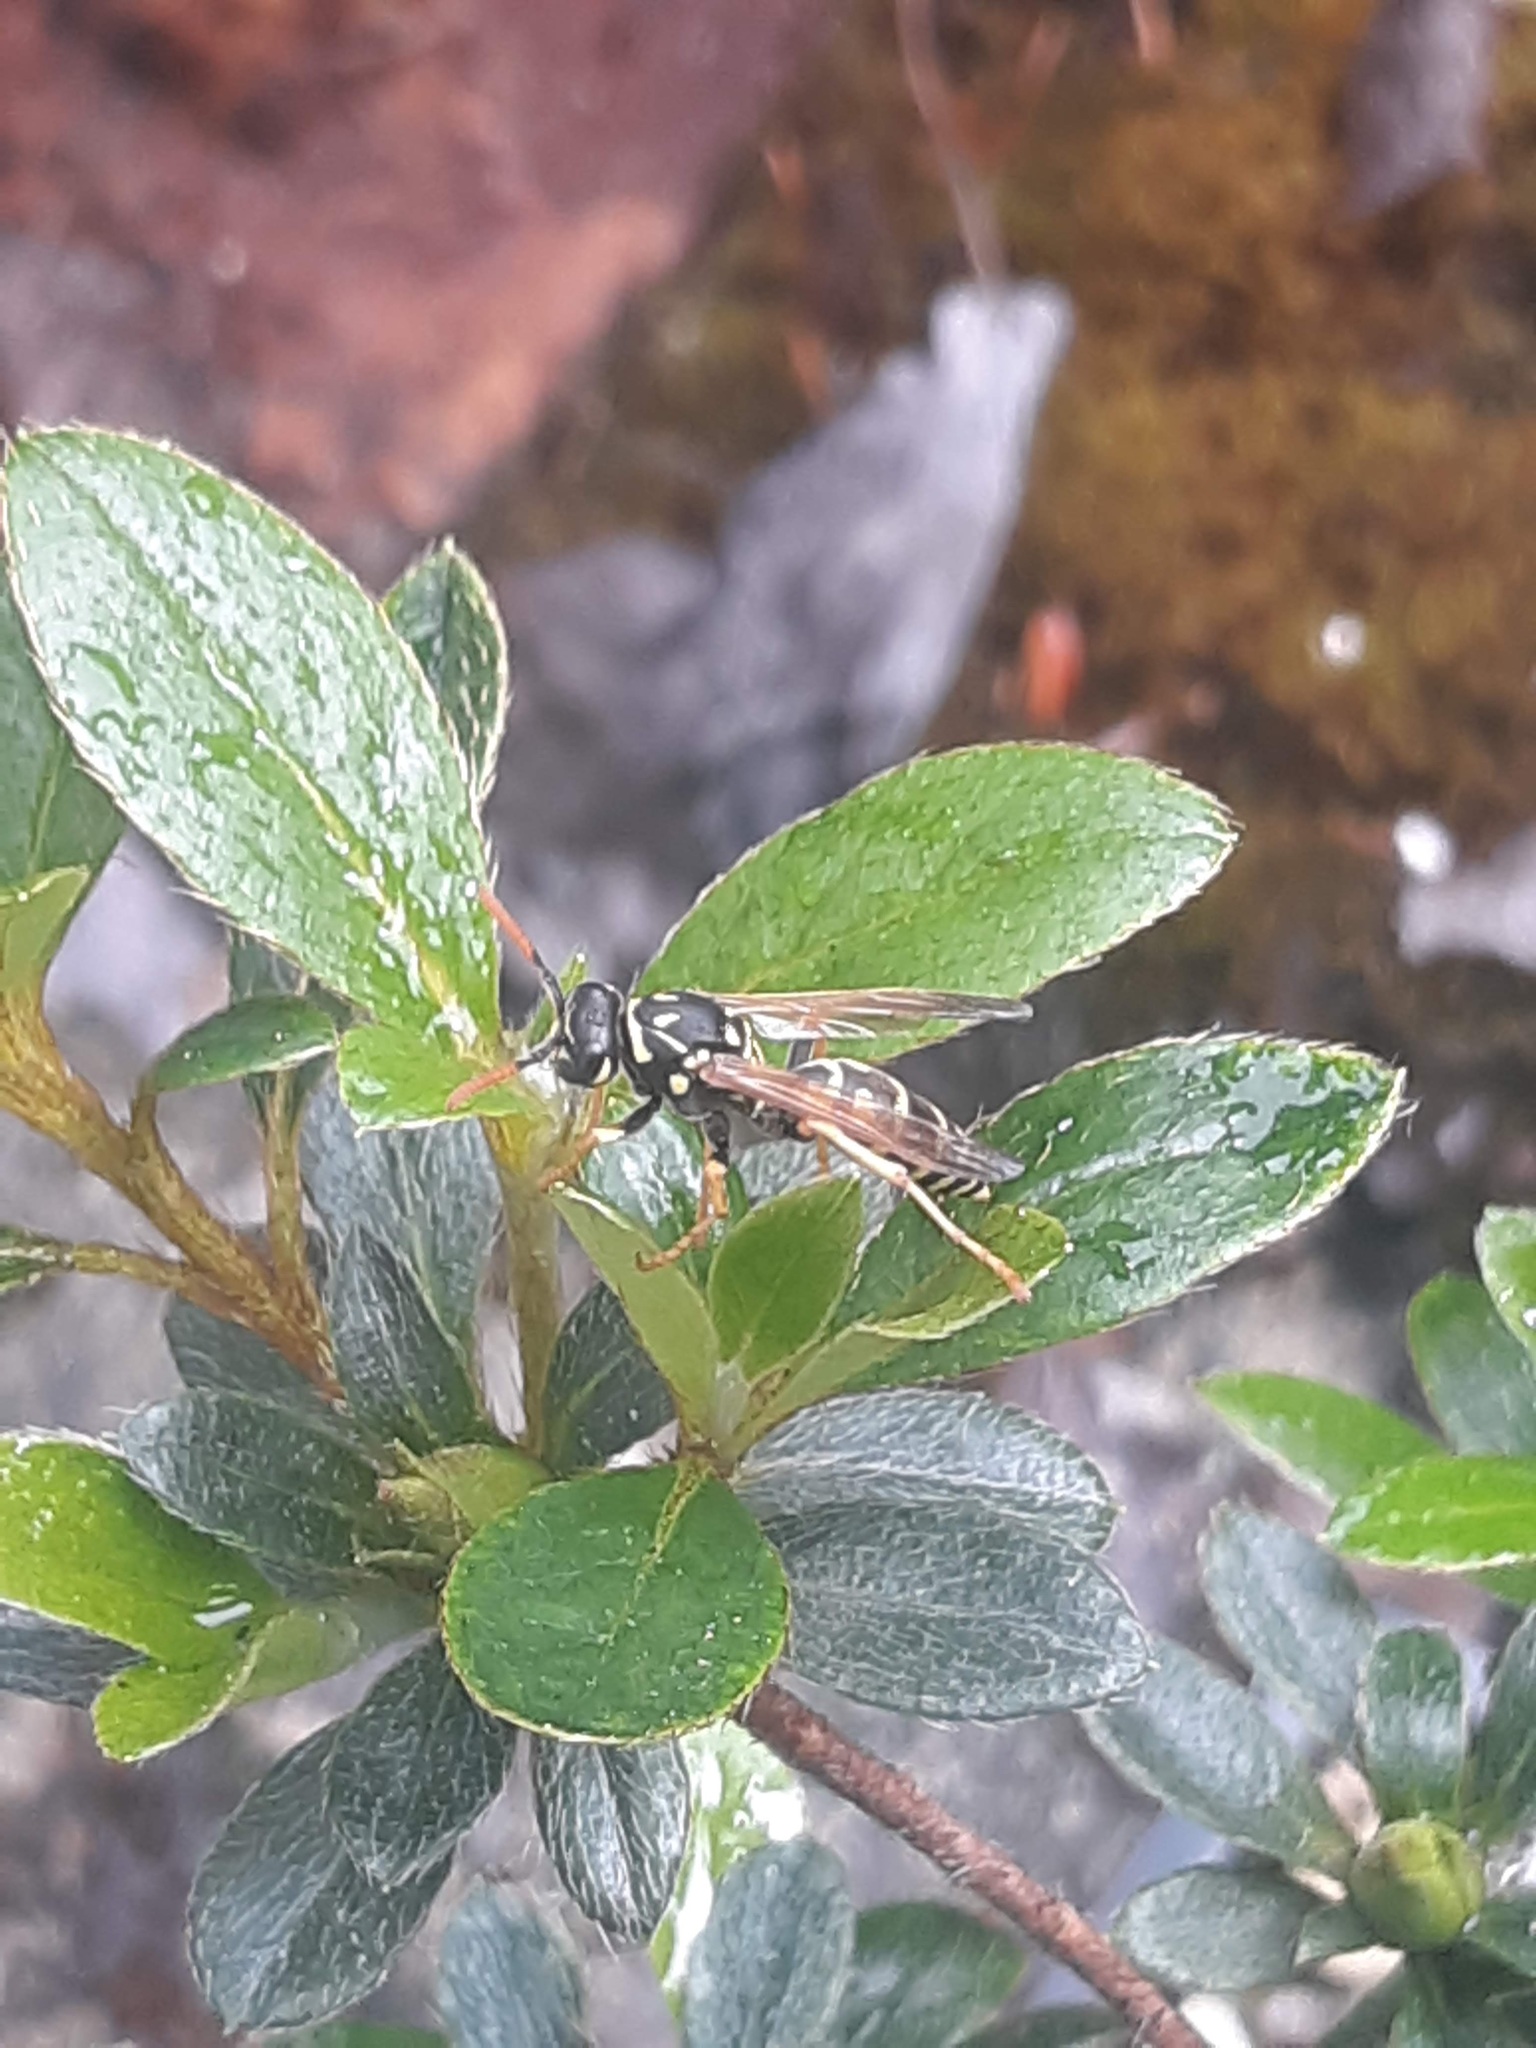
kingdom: Animalia
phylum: Arthropoda
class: Insecta
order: Hymenoptera
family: Eumenidae
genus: Polistes
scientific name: Polistes dominula
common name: Paper wasp
